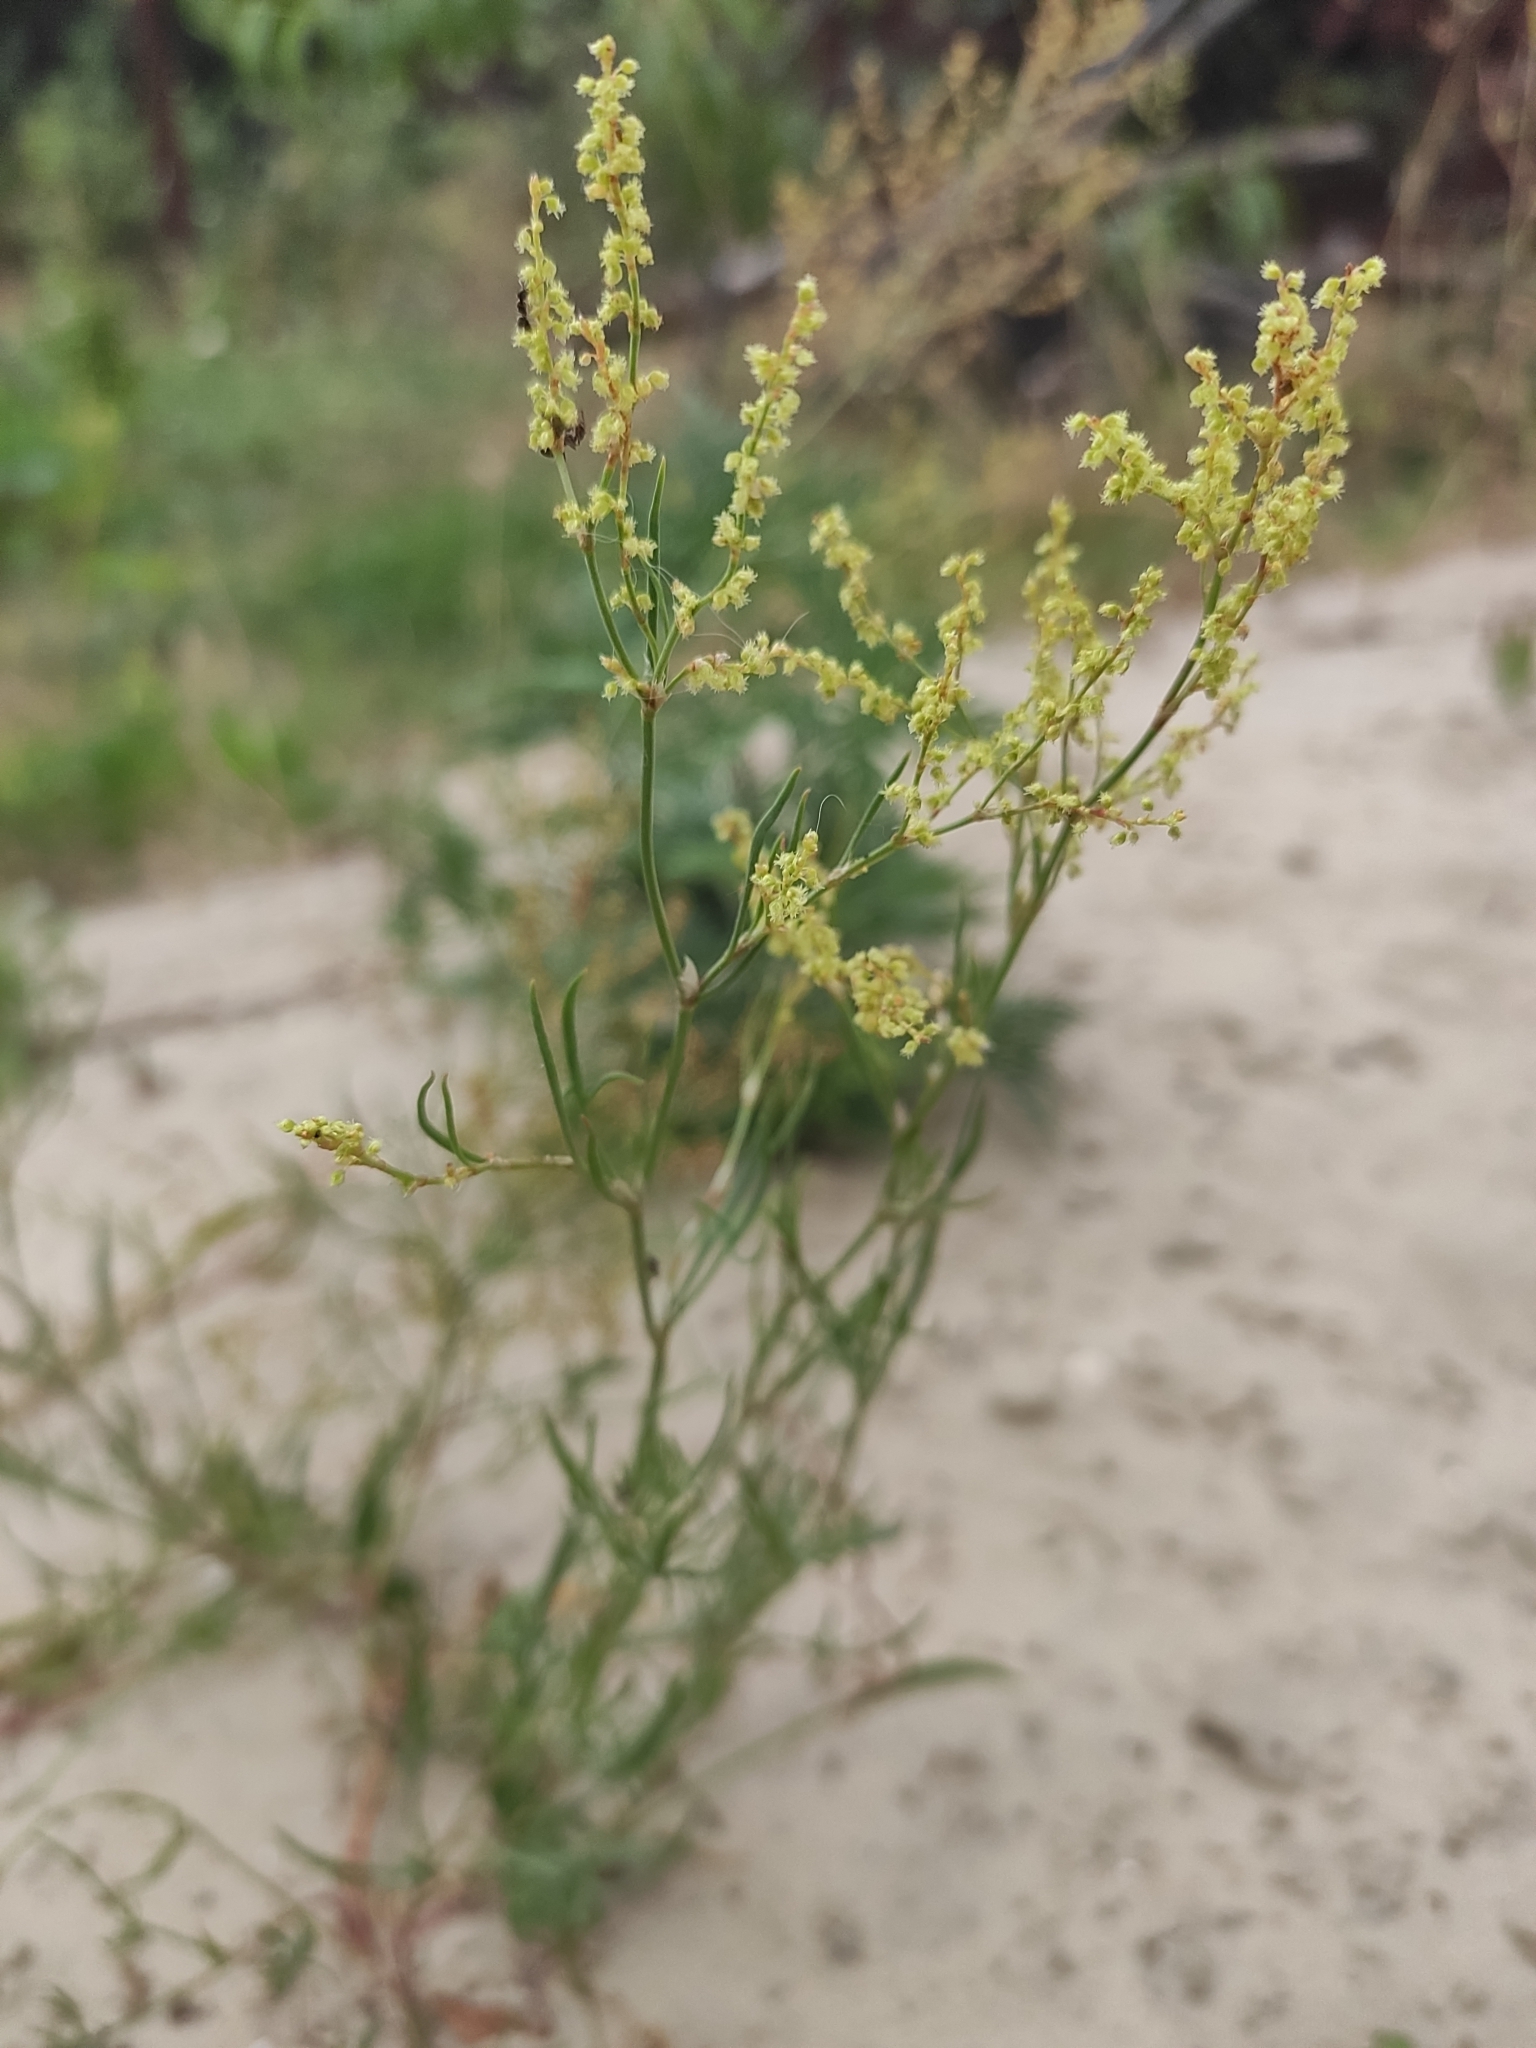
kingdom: Plantae
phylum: Tracheophyta
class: Magnoliopsida
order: Caryophyllales
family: Polygonaceae
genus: Rumex
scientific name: Rumex acetosella
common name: Common sheep sorrel
